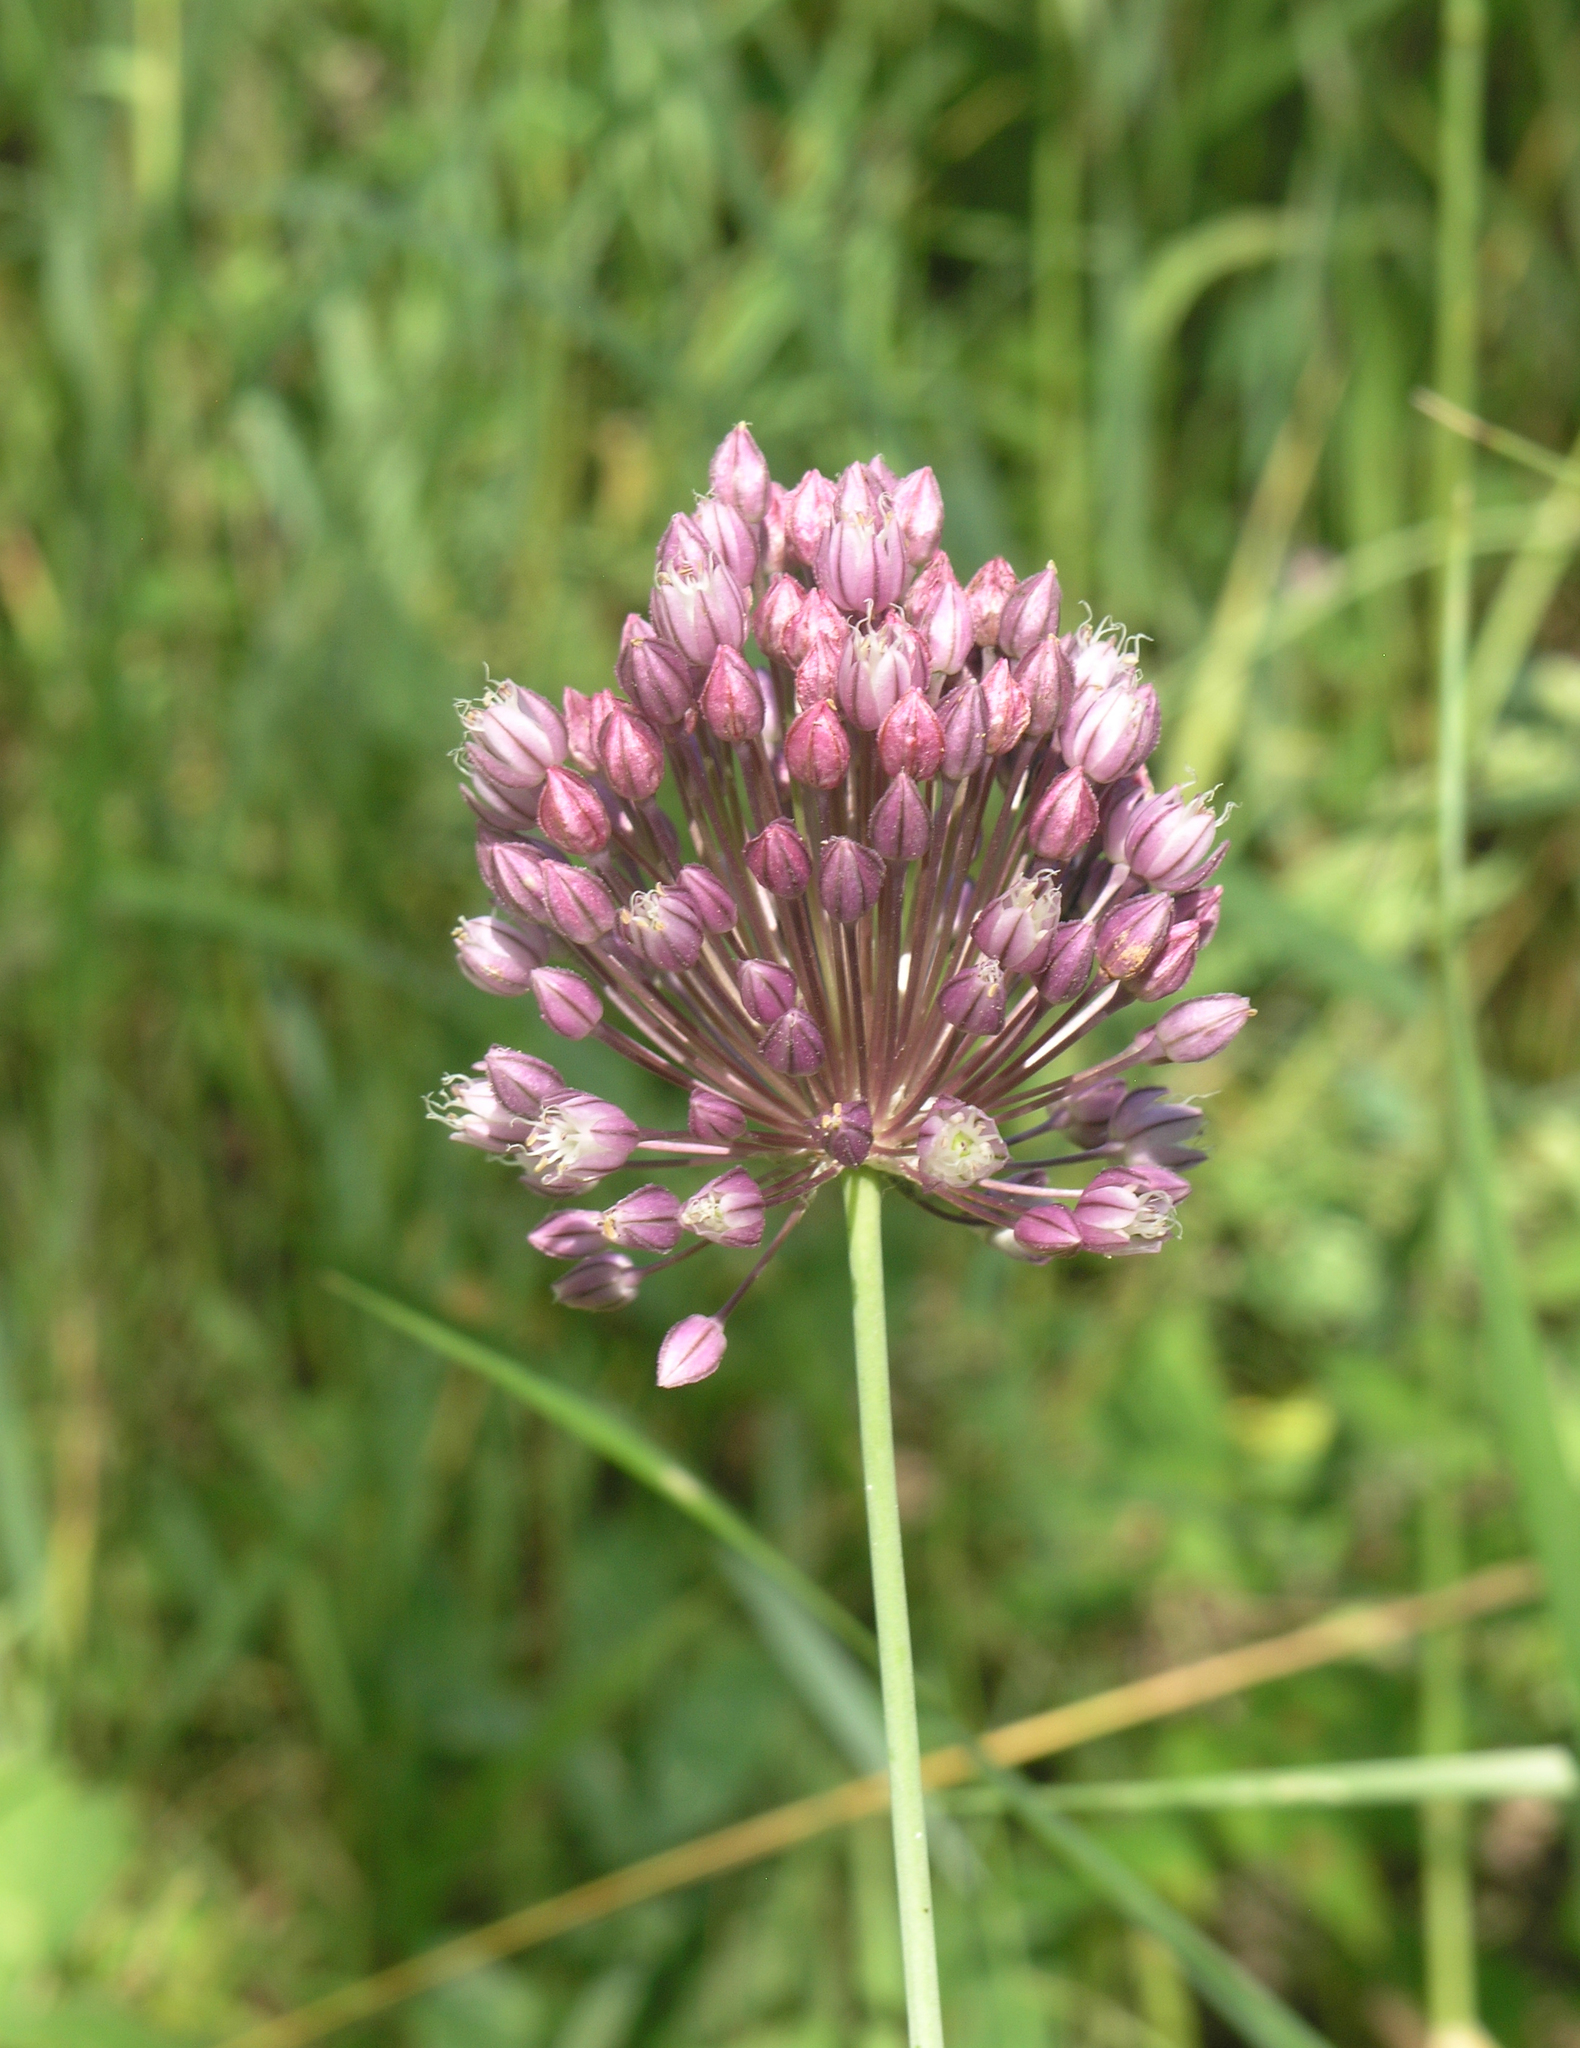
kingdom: Plantae
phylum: Tracheophyta
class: Liliopsida
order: Asparagales
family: Amaryllidaceae
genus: Allium
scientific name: Allium erubescens
